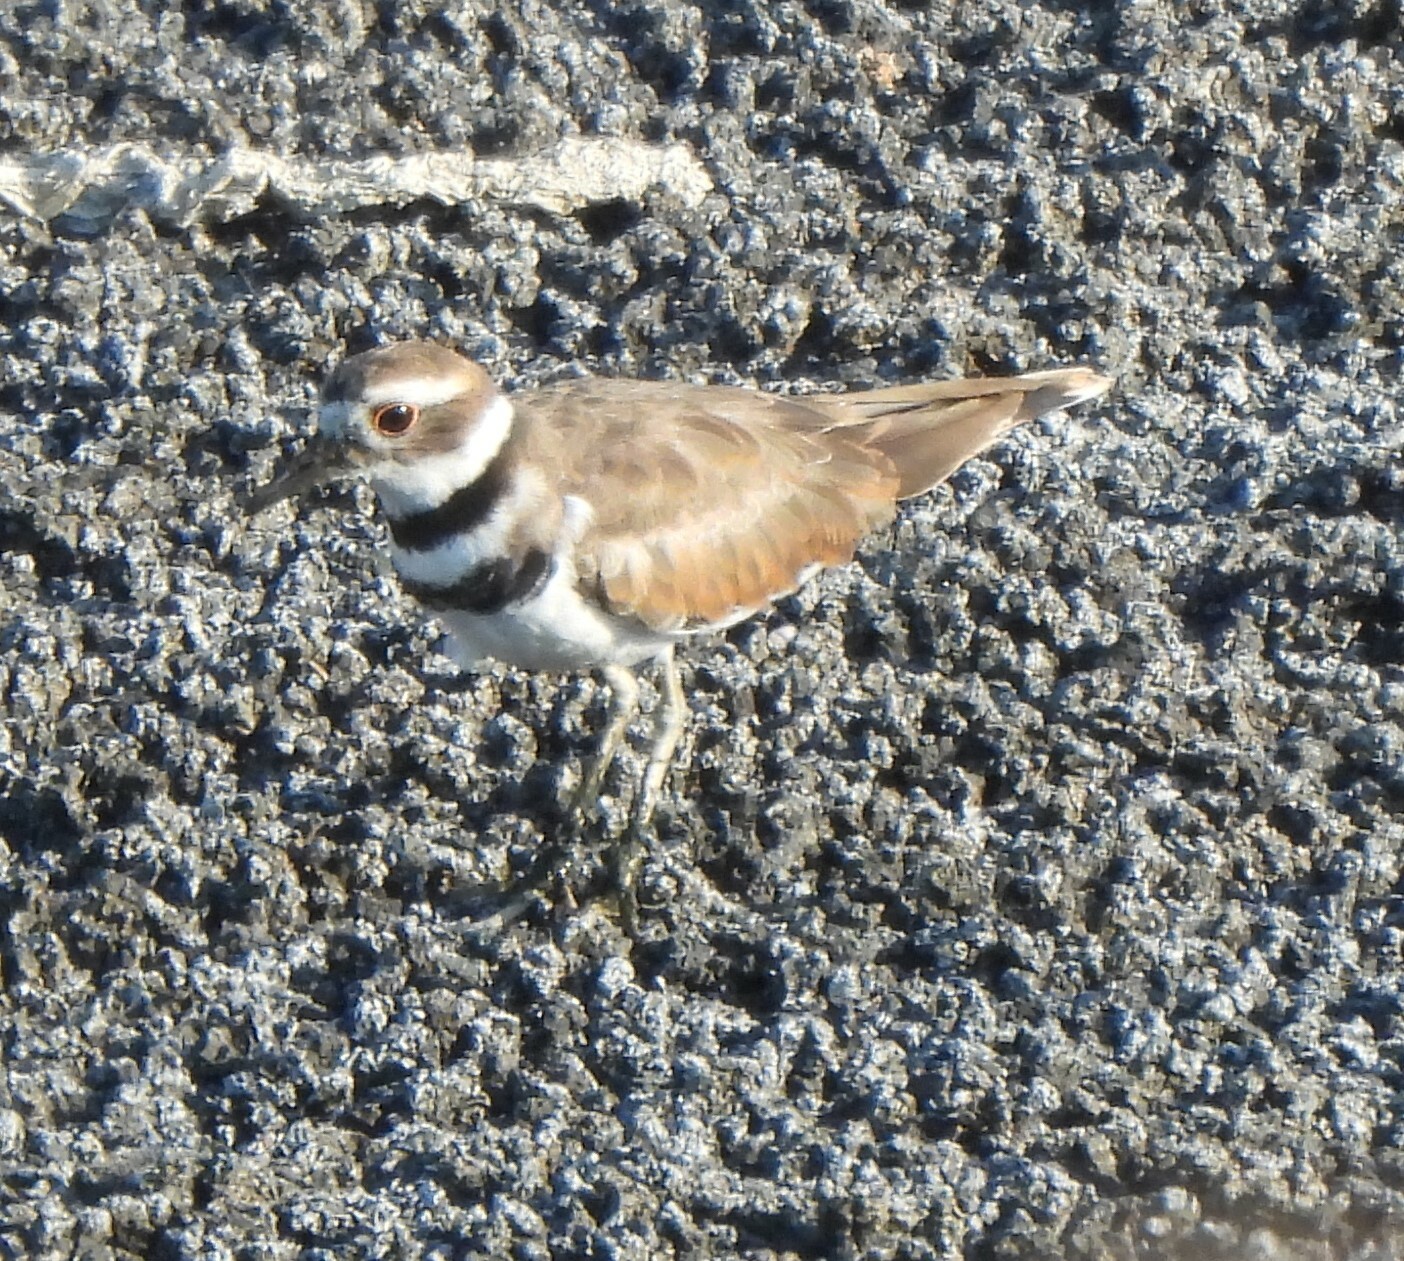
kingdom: Animalia
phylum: Chordata
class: Aves
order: Charadriiformes
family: Charadriidae
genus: Charadrius
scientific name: Charadrius vociferus
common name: Killdeer
